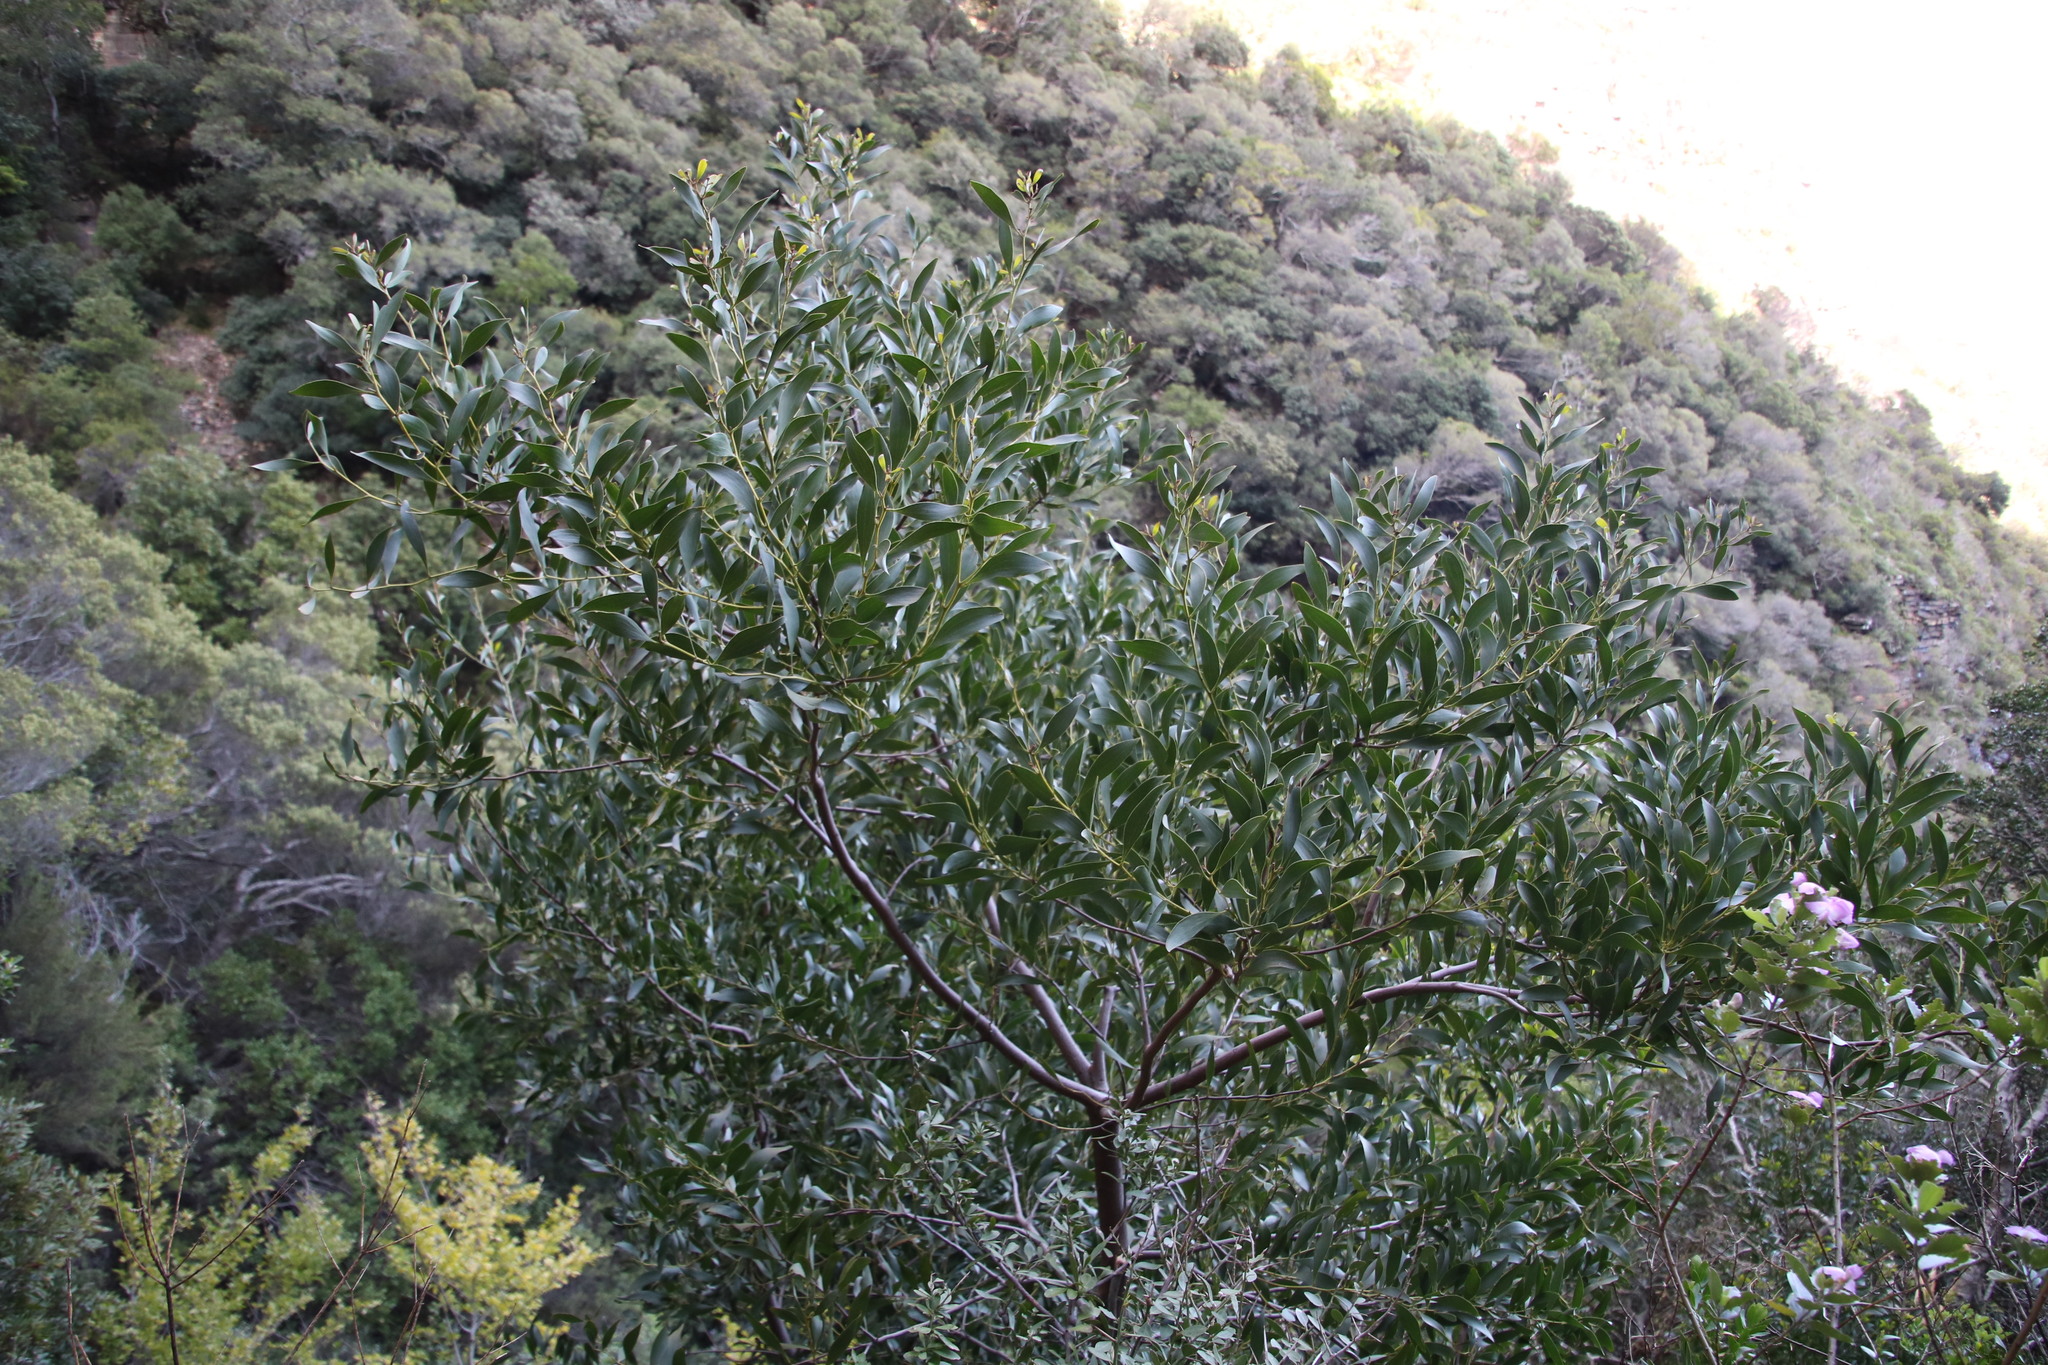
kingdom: Plantae
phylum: Tracheophyta
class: Magnoliopsida
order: Fabales
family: Fabaceae
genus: Acacia
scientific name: Acacia falciformis
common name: Tanning wattle
